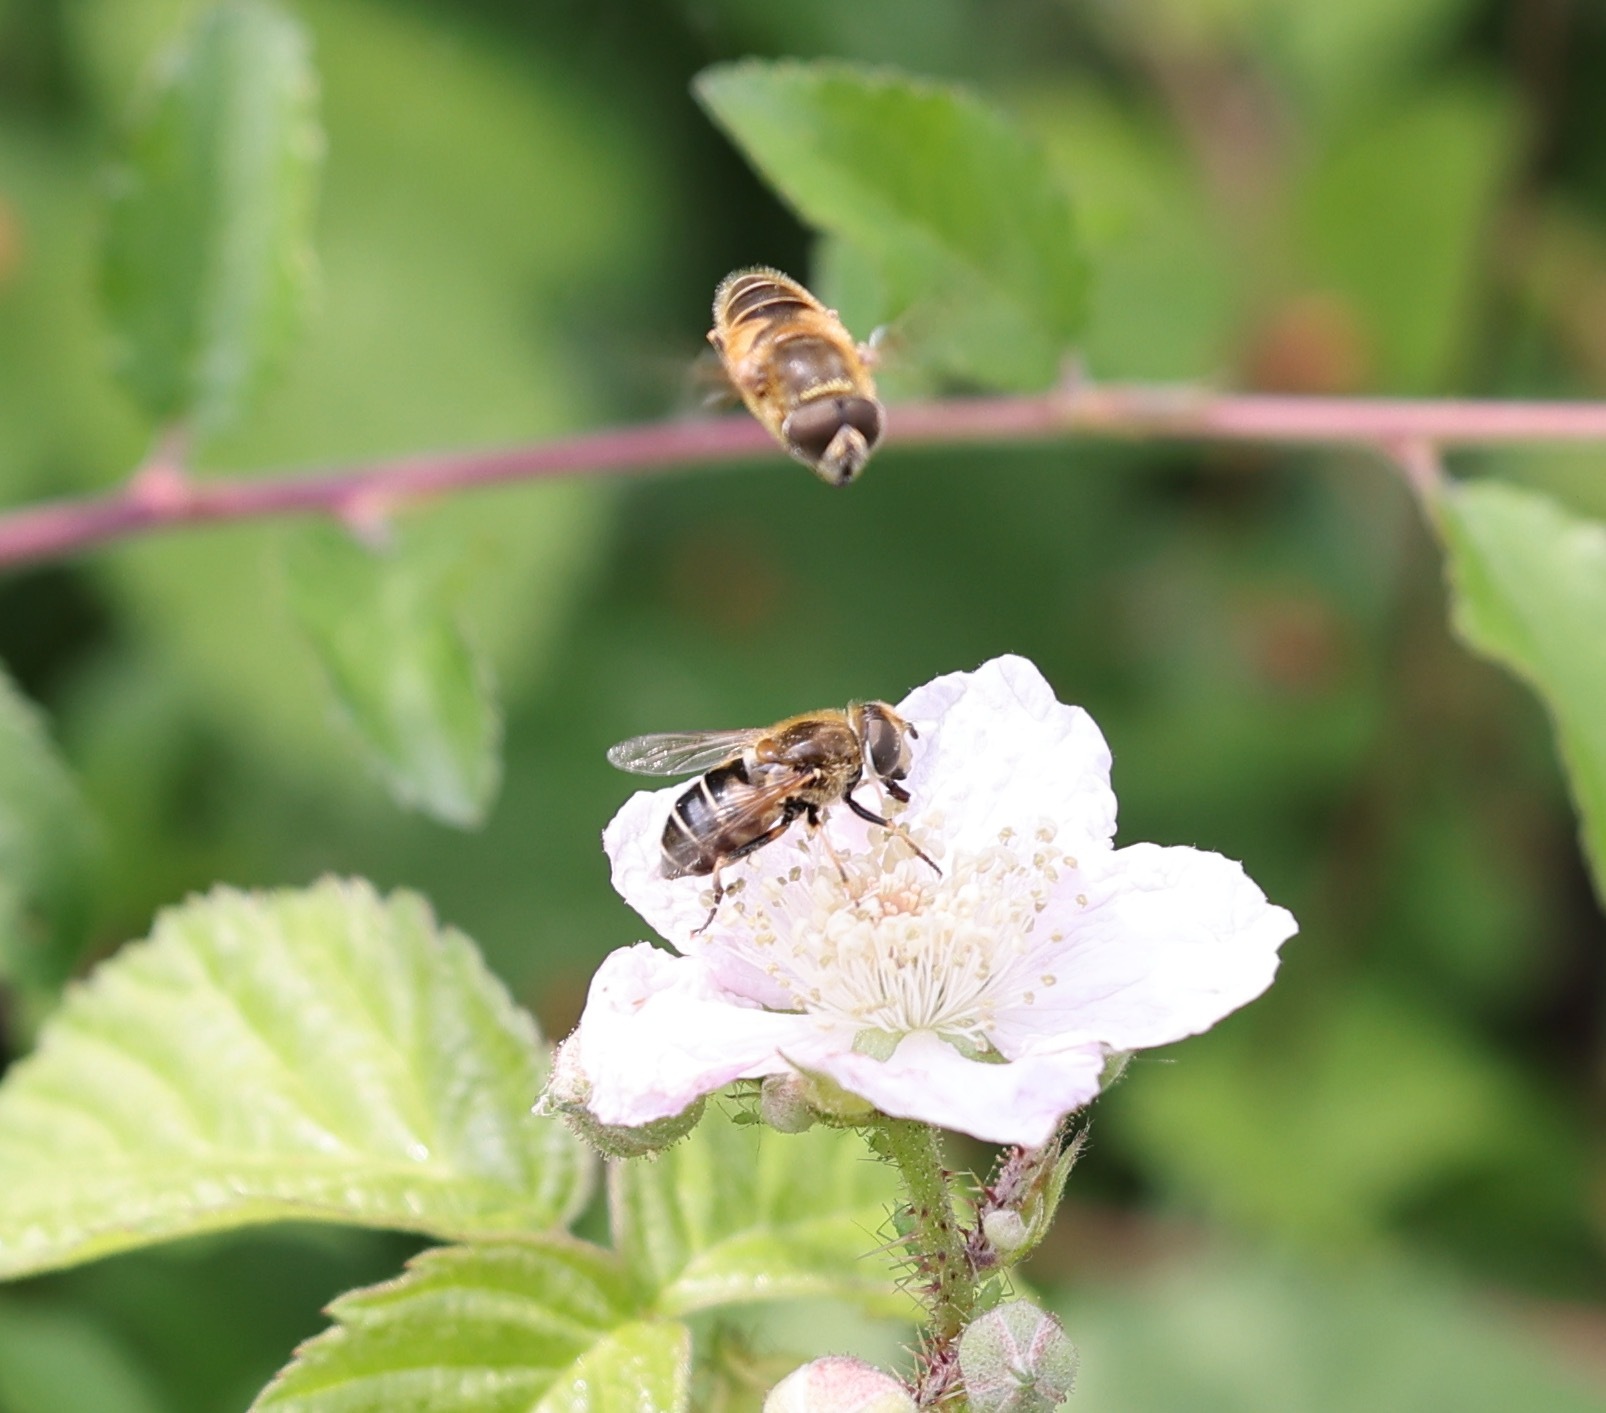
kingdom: Animalia
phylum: Arthropoda
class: Insecta
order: Diptera
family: Syrphidae
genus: Eristalis
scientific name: Eristalis nemorum
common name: Orange-spined drone fly
